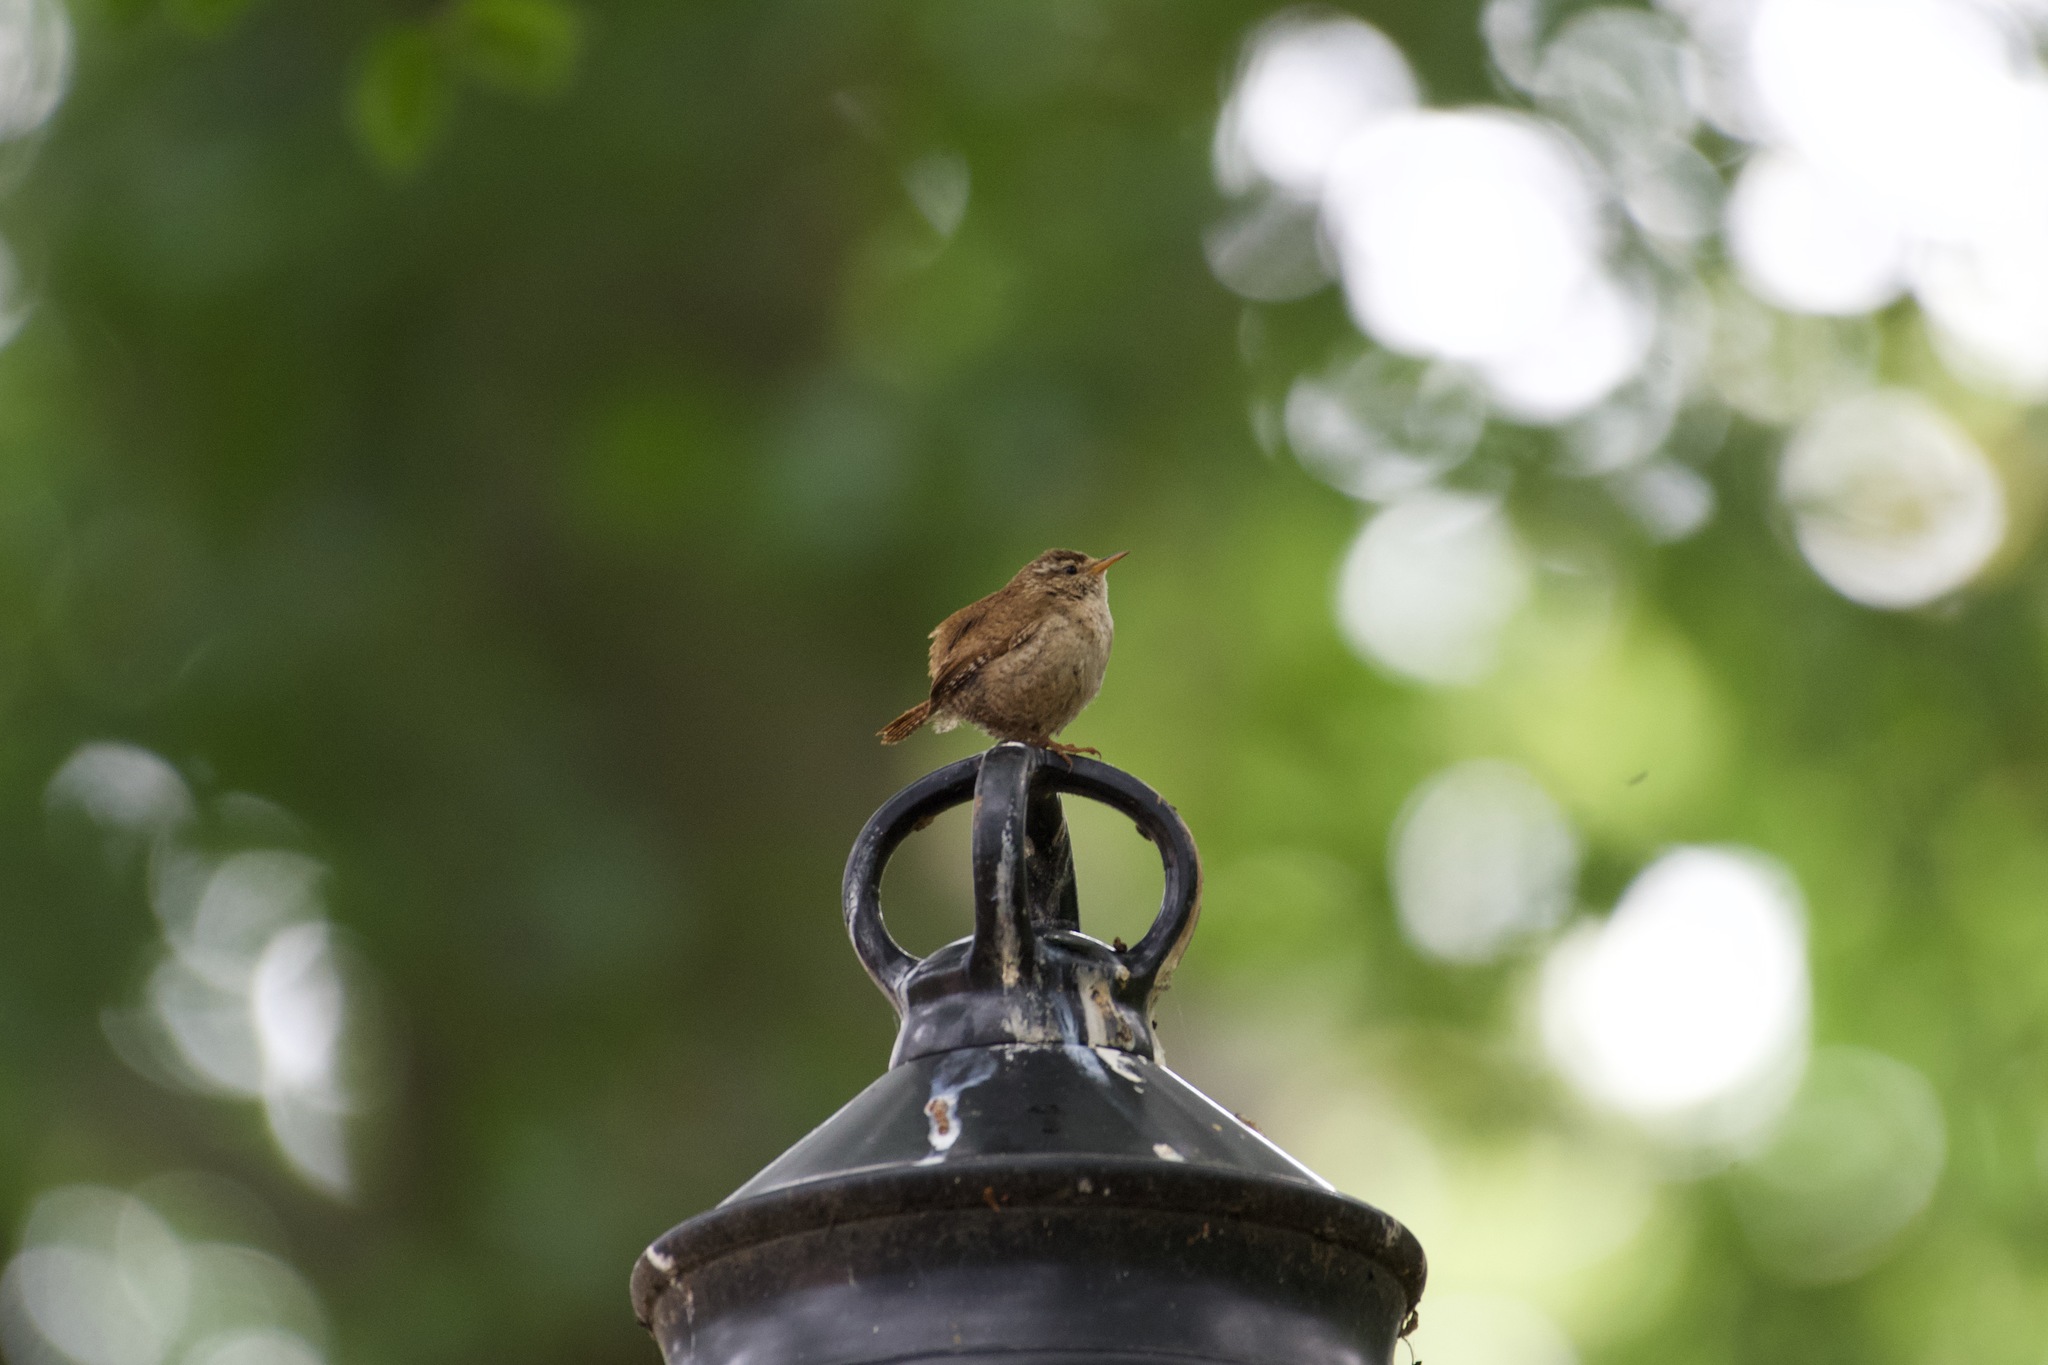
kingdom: Animalia
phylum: Chordata
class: Aves
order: Passeriformes
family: Troglodytidae
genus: Troglodytes
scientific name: Troglodytes troglodytes
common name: Eurasian wren
